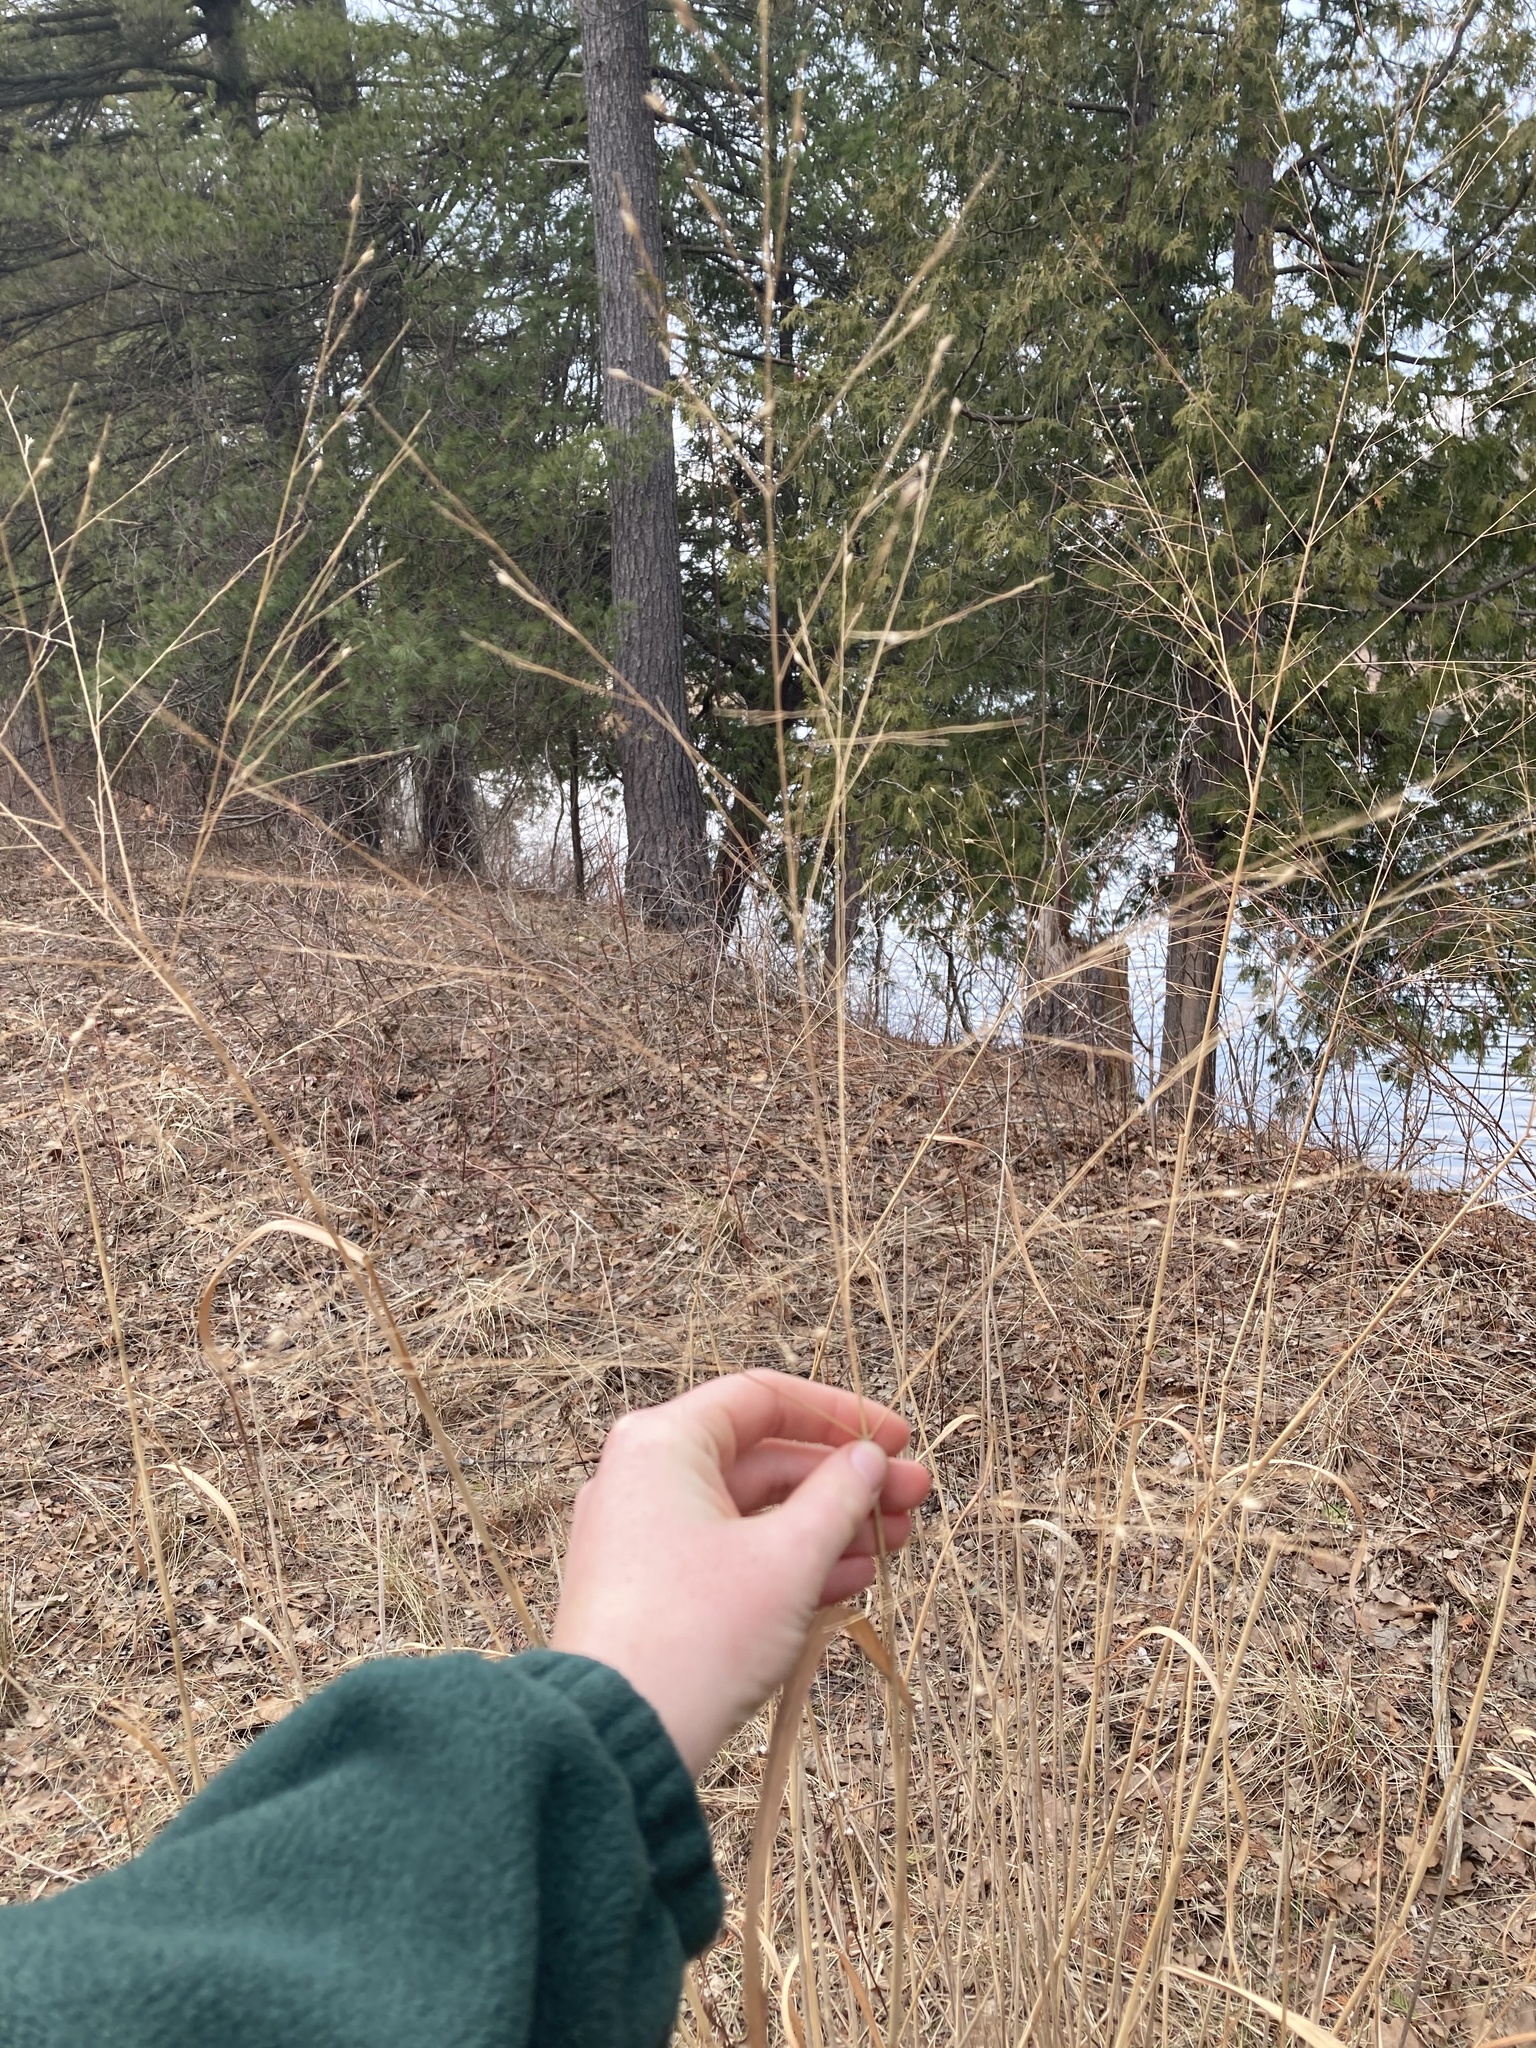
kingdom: Plantae
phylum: Tracheophyta
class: Liliopsida
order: Poales
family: Poaceae
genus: Panicum
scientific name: Panicum virgatum
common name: Switchgrass
